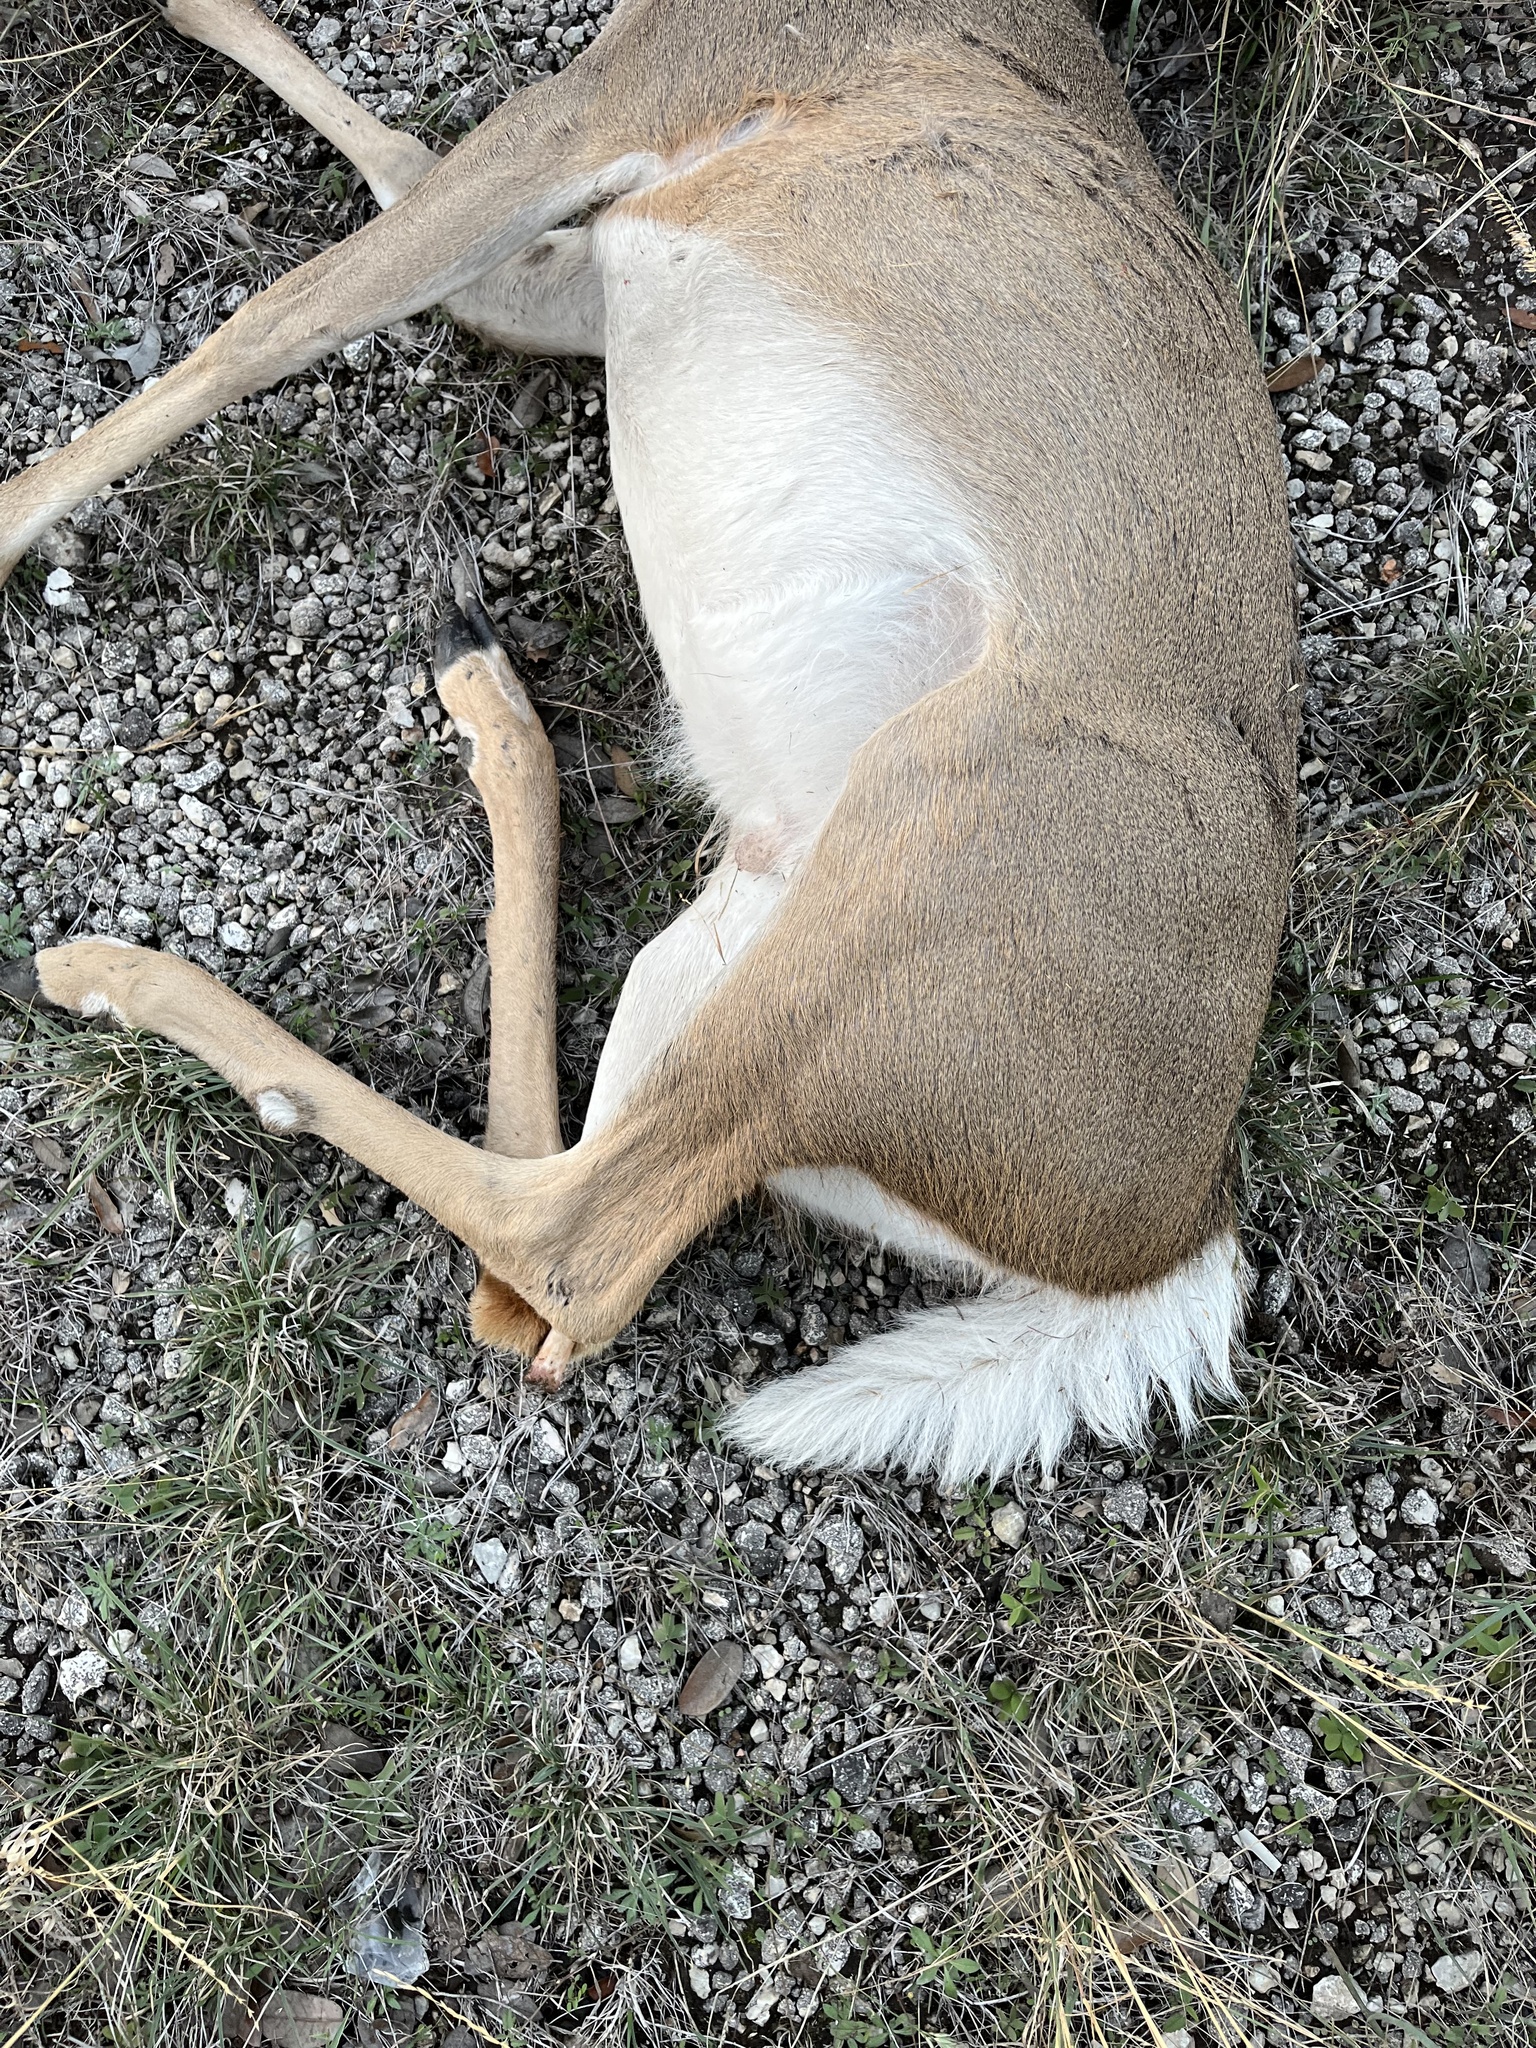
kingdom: Animalia
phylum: Chordata
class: Mammalia
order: Artiodactyla
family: Cervidae
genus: Odocoileus
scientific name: Odocoileus virginianus
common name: White-tailed deer
